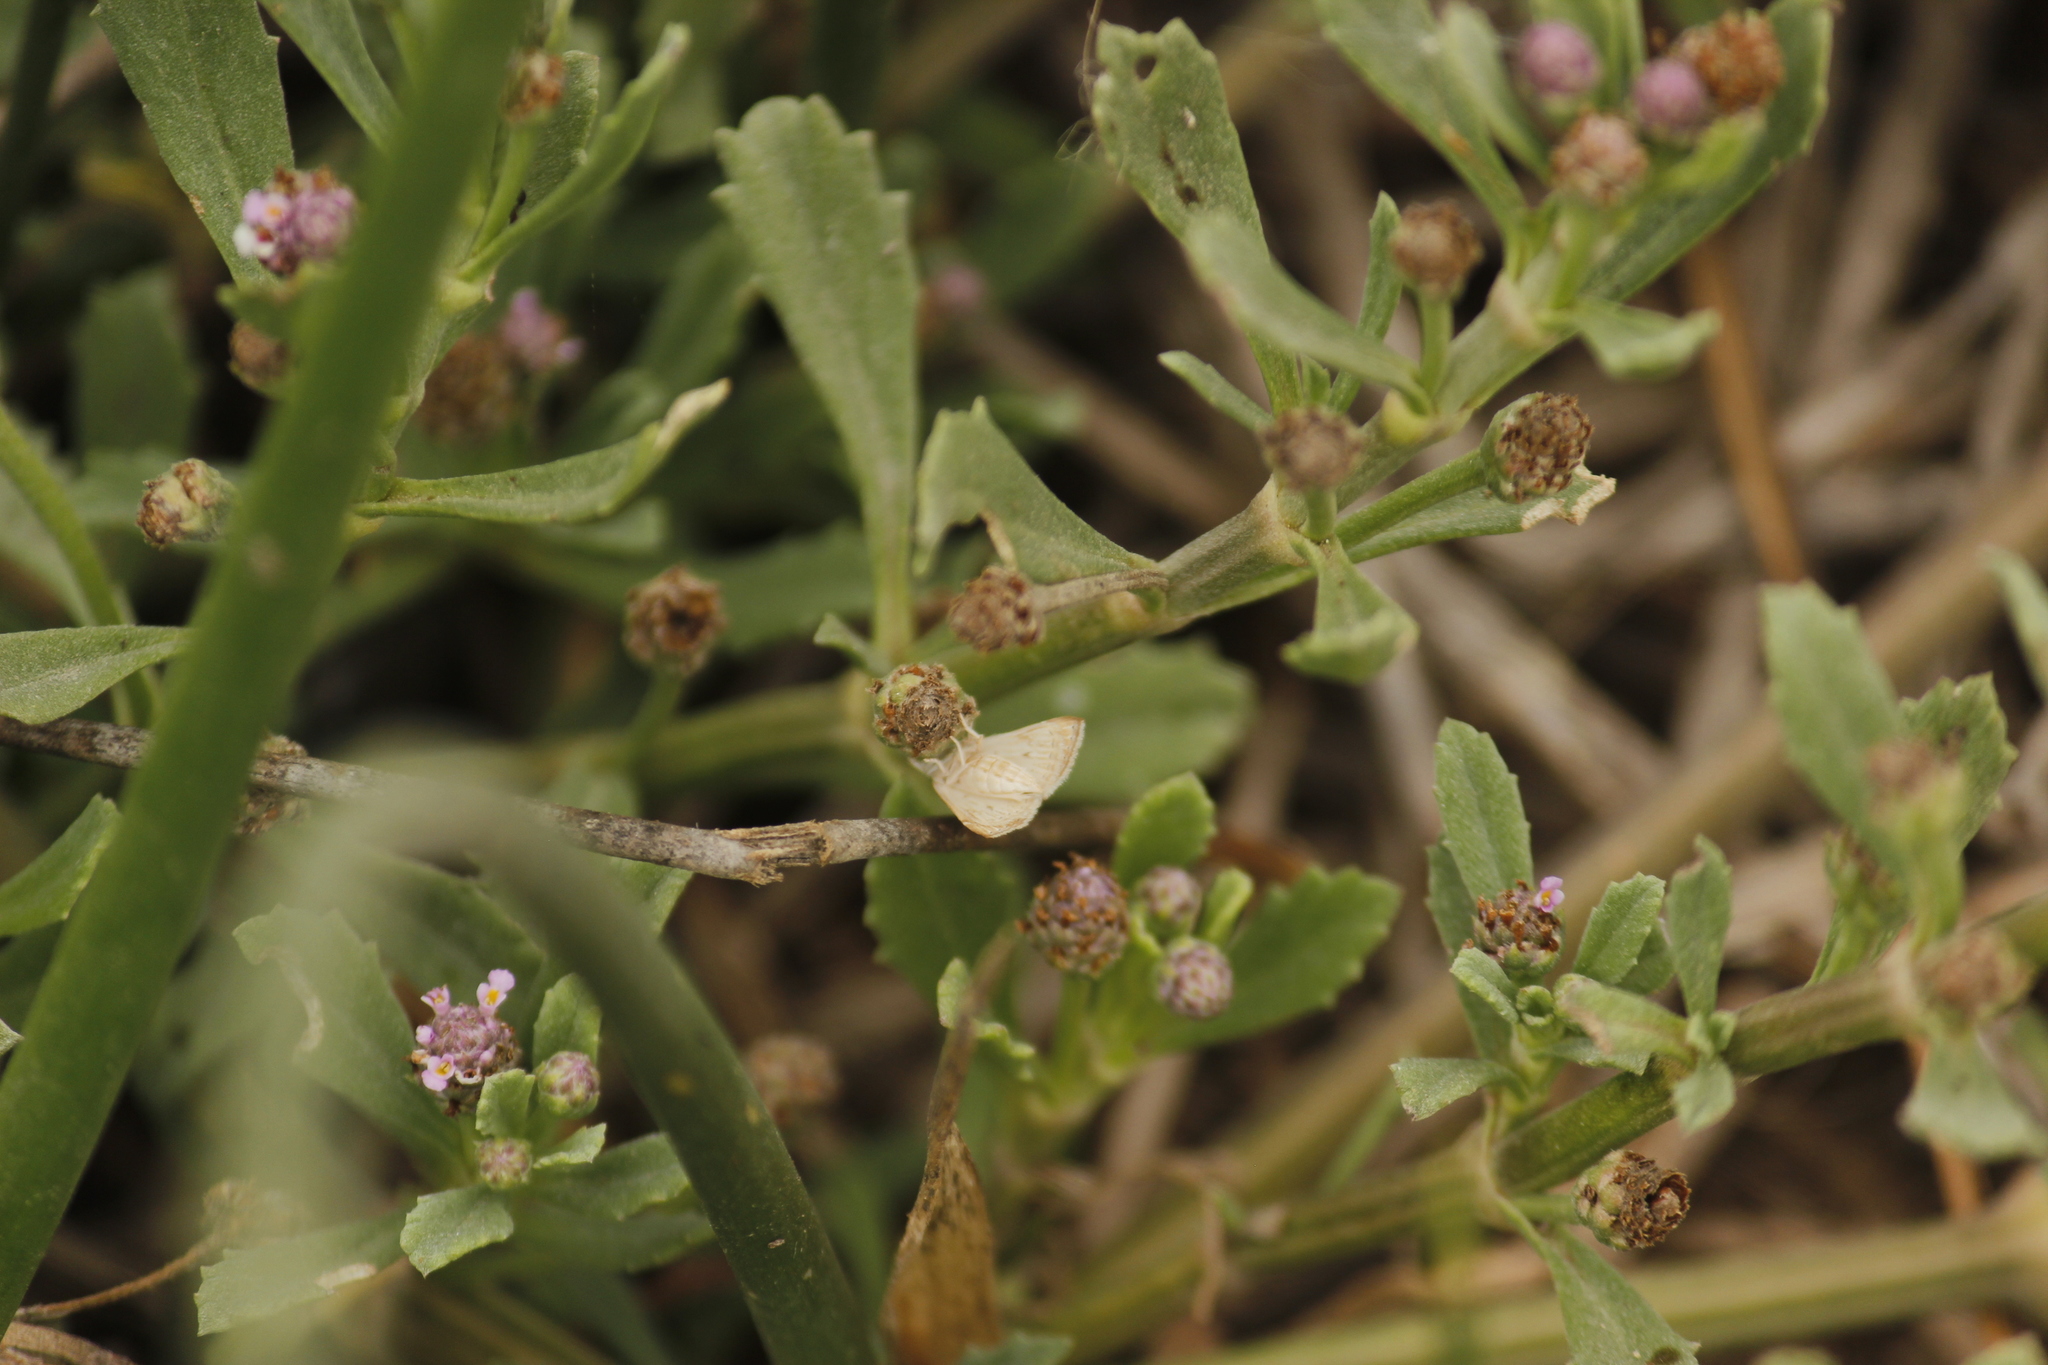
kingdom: Plantae
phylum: Tracheophyta
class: Magnoliopsida
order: Lamiales
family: Verbenaceae
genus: Phyla
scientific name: Phyla nodiflora
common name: Frogfruit
